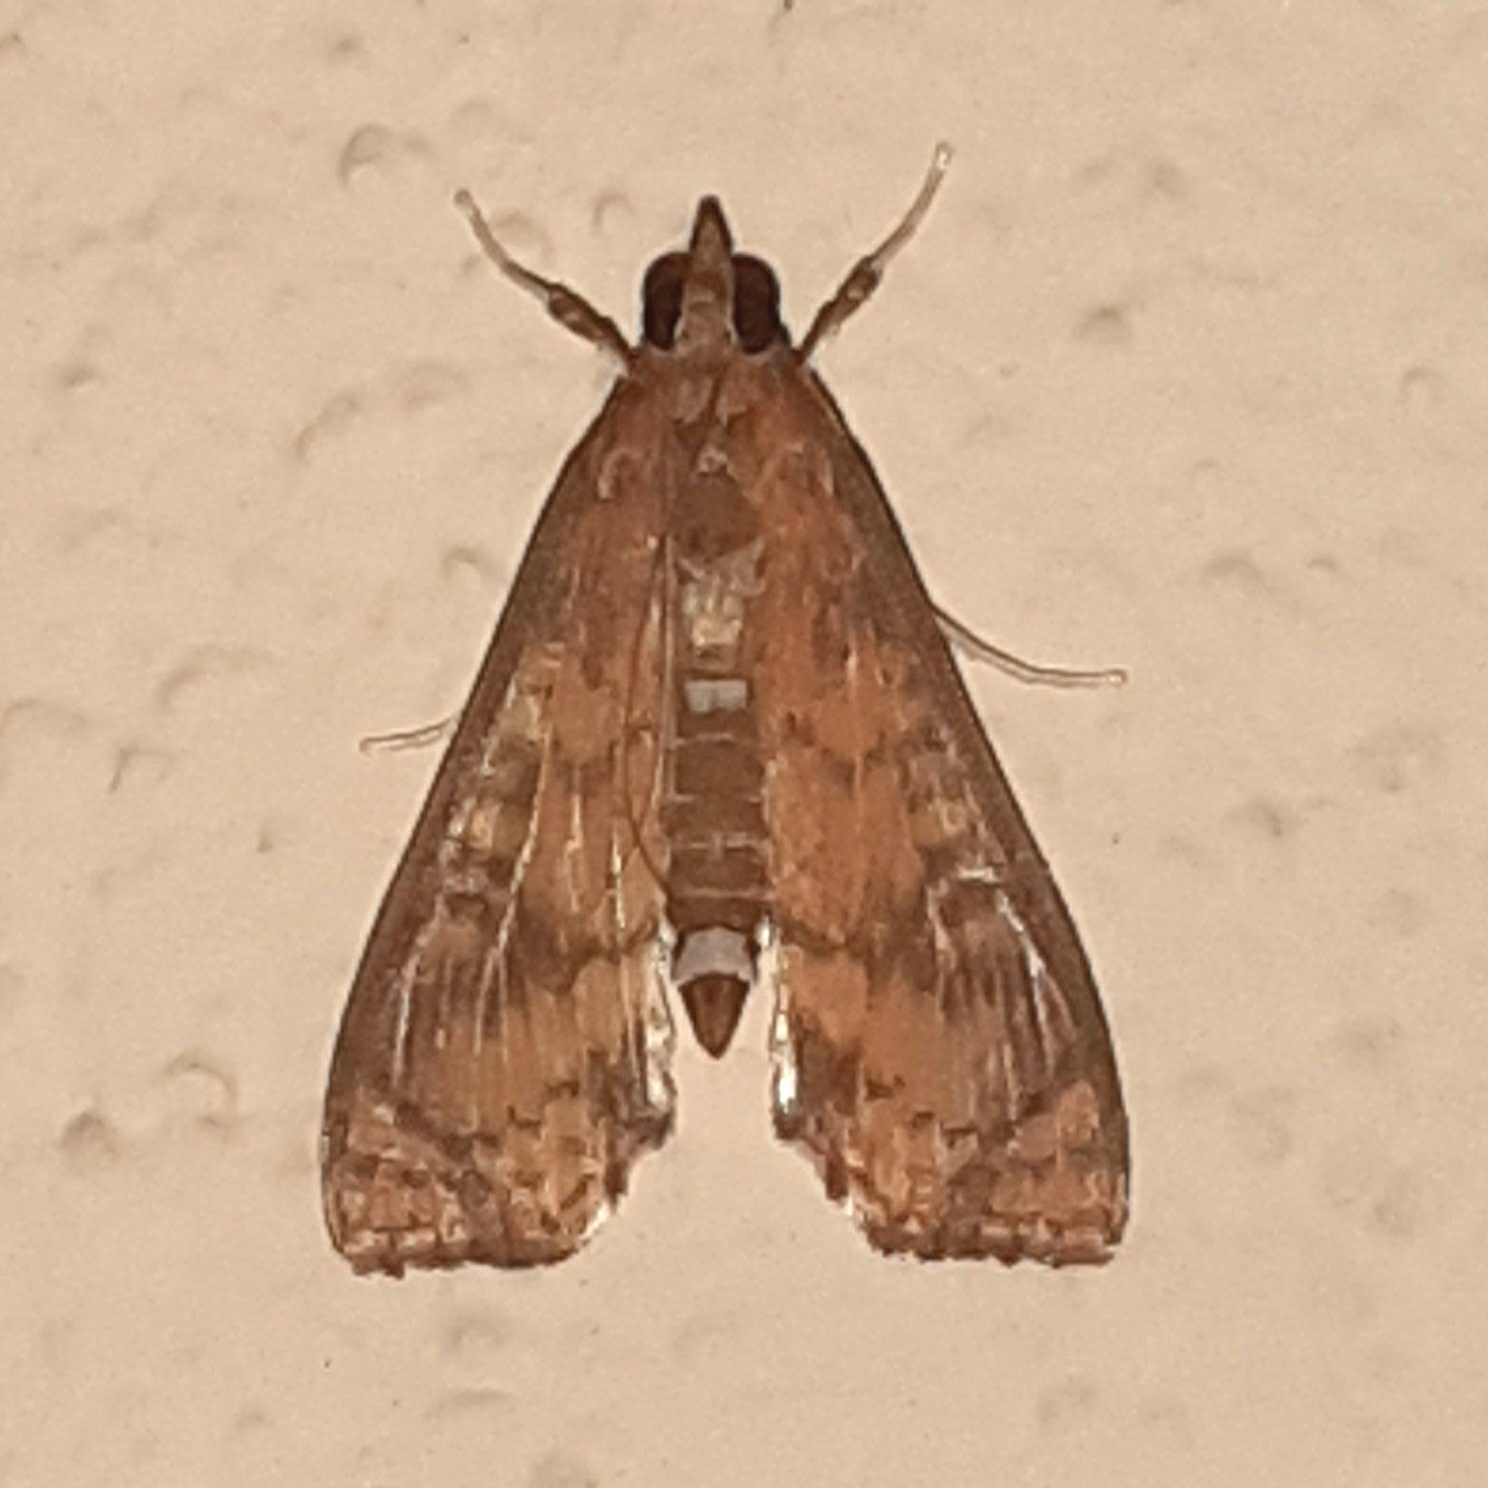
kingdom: Animalia
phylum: Arthropoda
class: Insecta
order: Lepidoptera
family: Crambidae
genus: Liopasia
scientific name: Liopasia ochracealis
